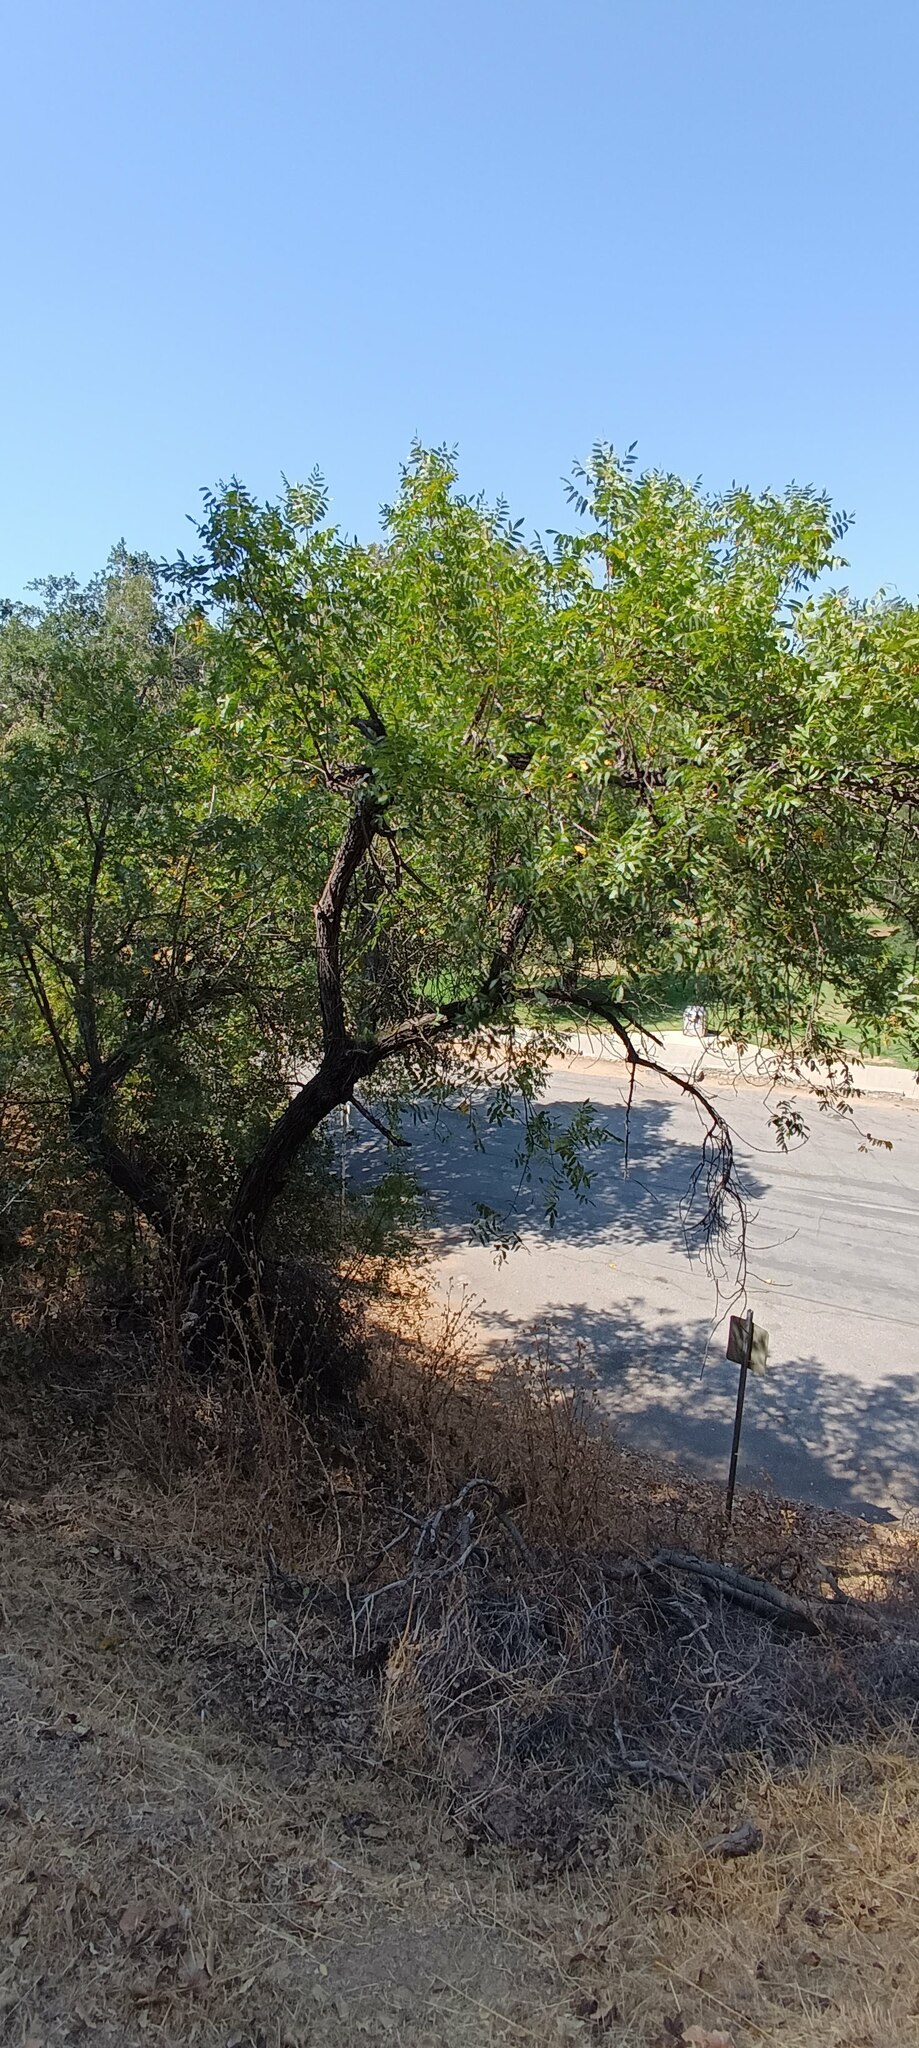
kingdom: Plantae
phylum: Tracheophyta
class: Magnoliopsida
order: Fagales
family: Juglandaceae
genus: Juglans
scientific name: Juglans californica
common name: Southern california black walnut
